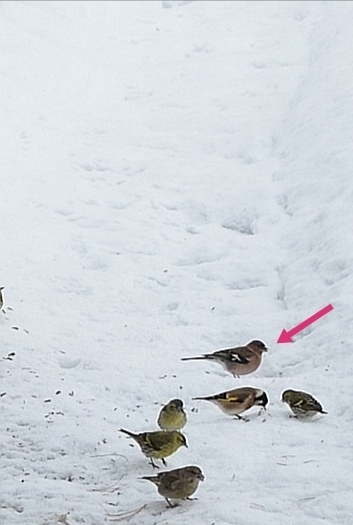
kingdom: Animalia
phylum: Chordata
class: Aves
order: Passeriformes
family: Fringillidae
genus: Fringilla
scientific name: Fringilla coelebs
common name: Common chaffinch
